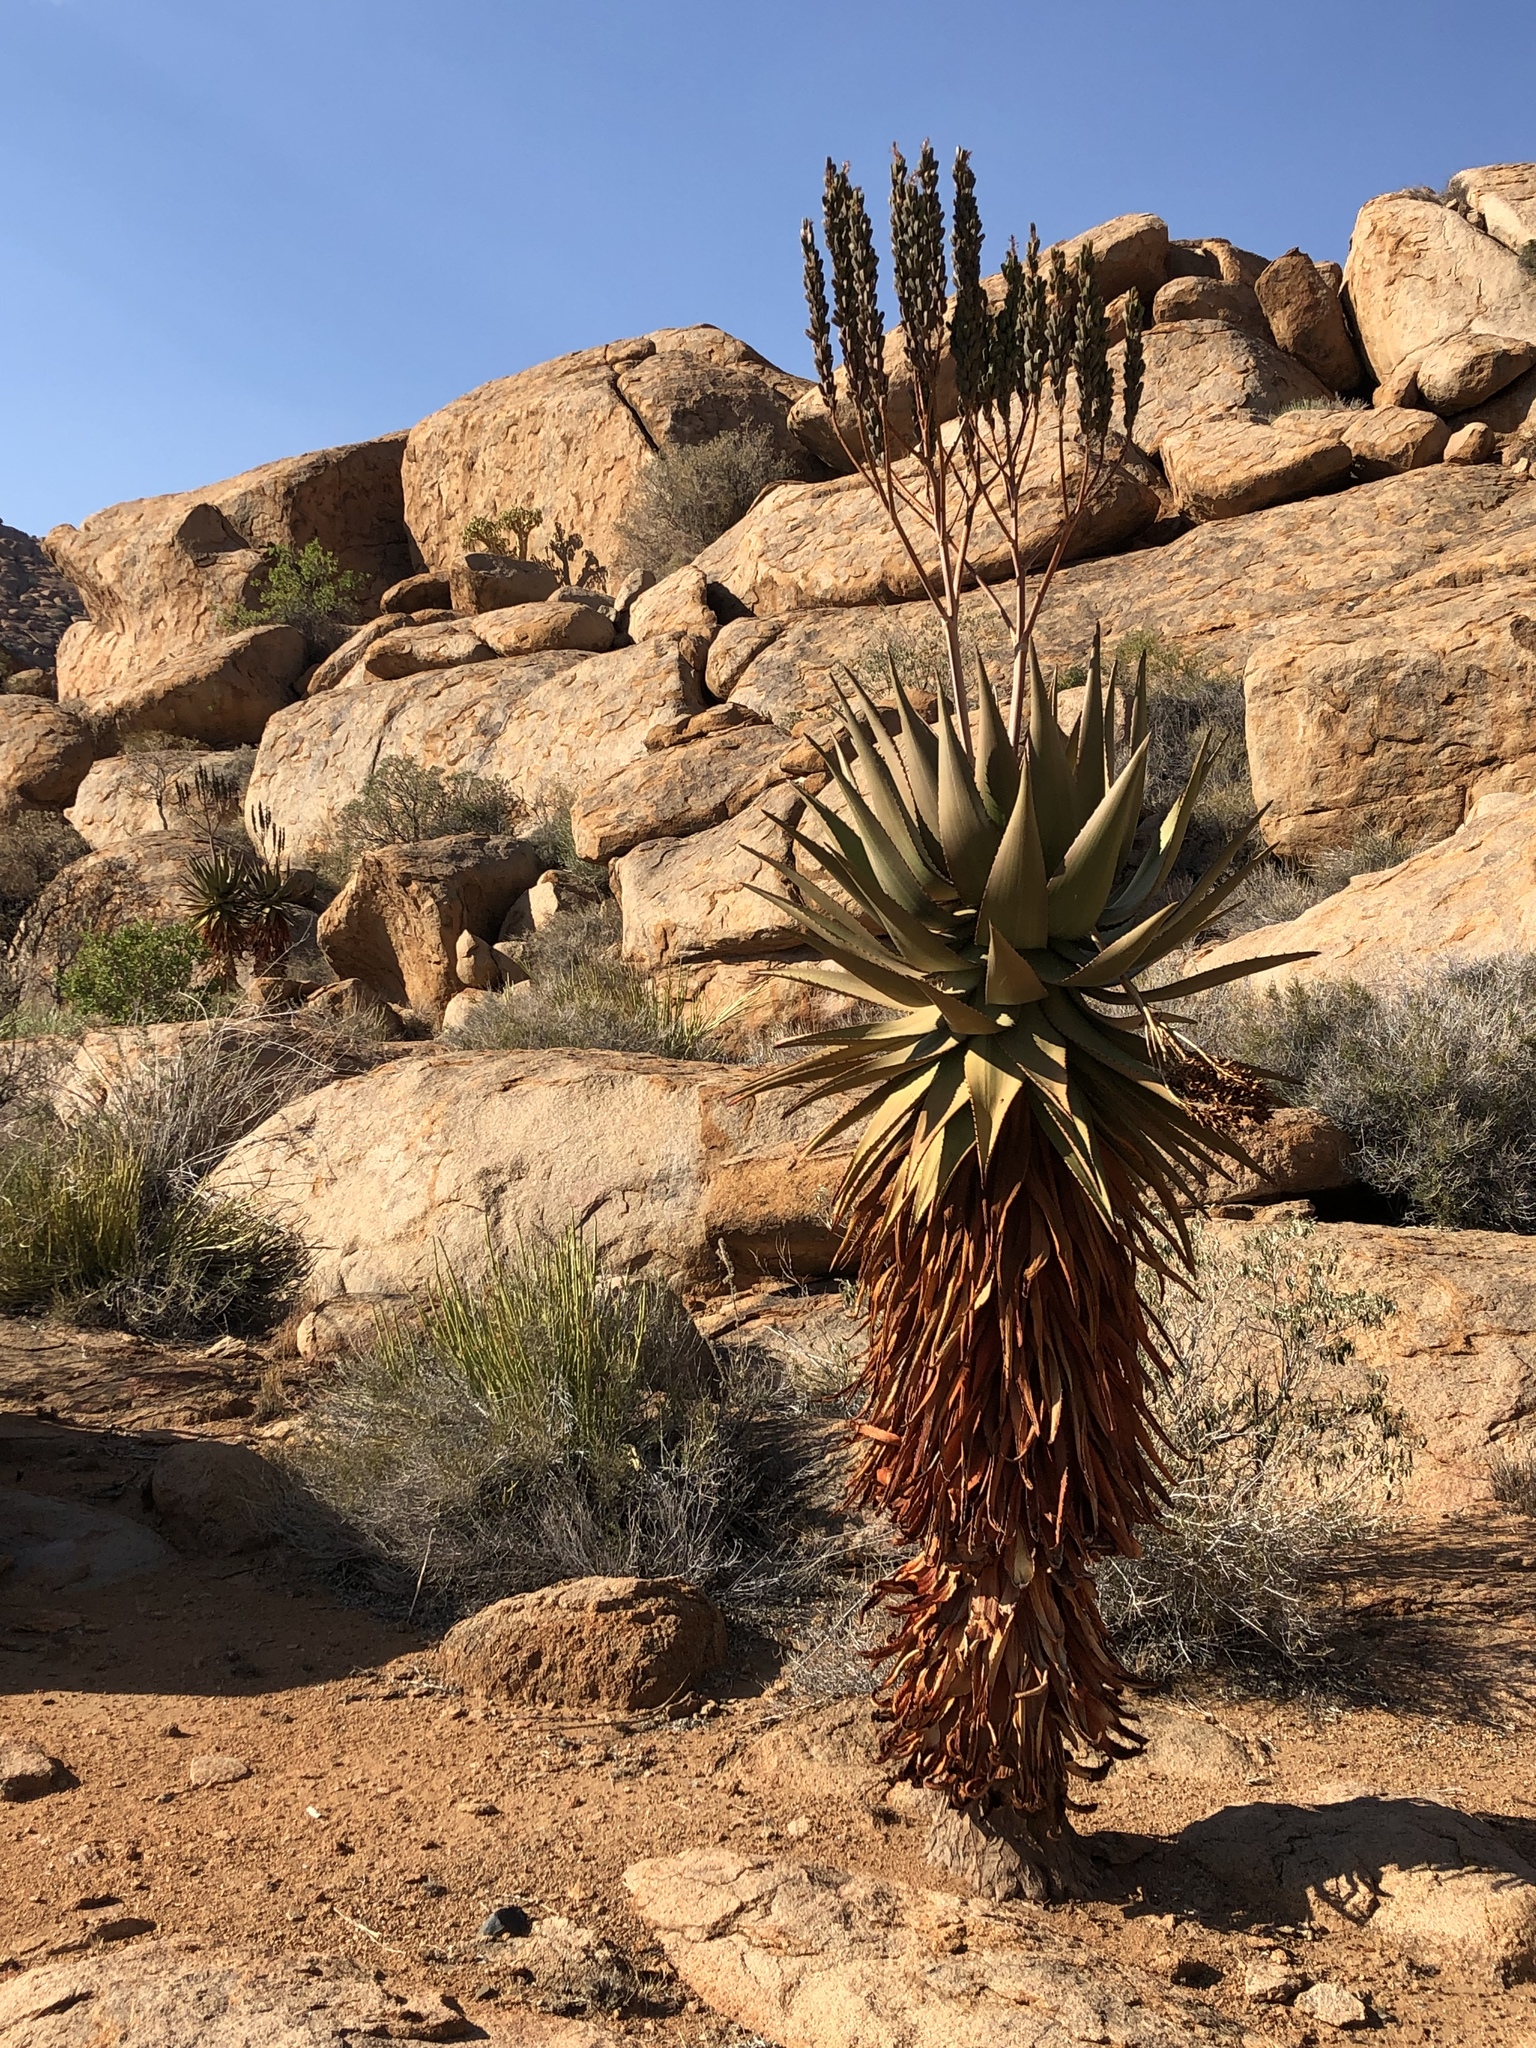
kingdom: Plantae
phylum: Tracheophyta
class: Liliopsida
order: Asparagales
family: Asphodelaceae
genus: Aloe
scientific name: Aloe littoralis
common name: Luanda tree aloe
